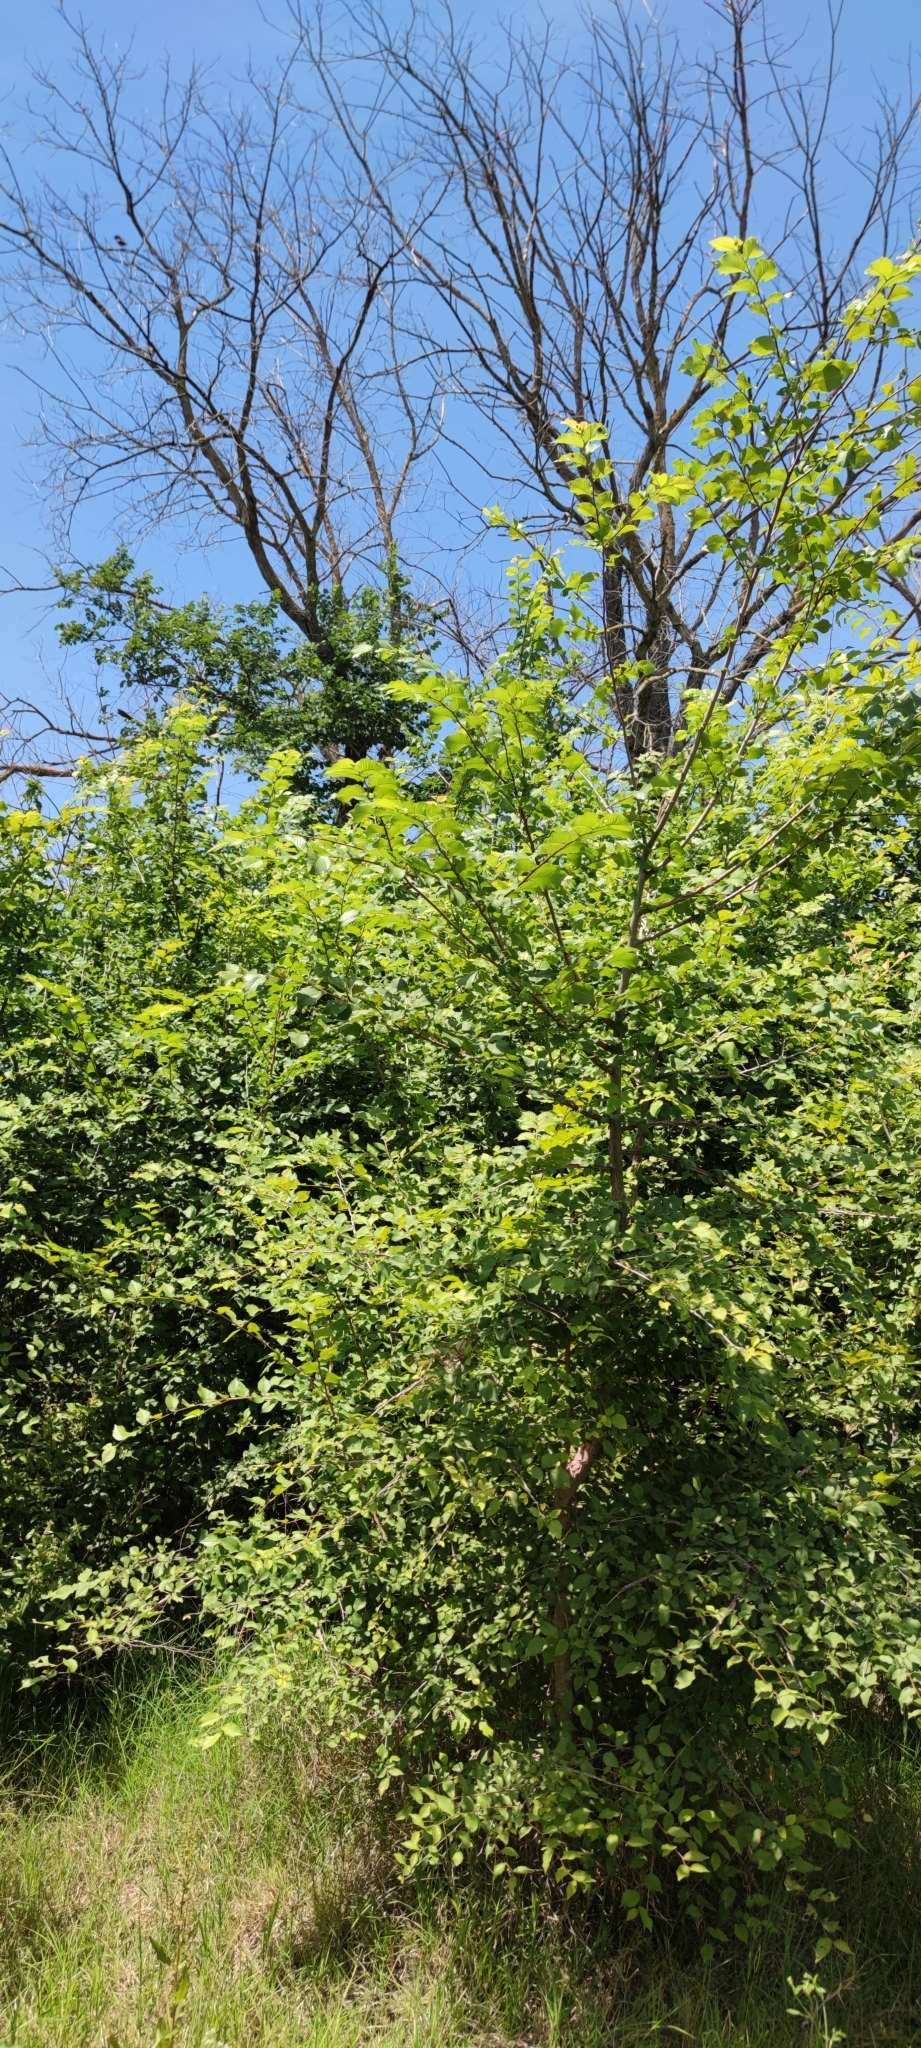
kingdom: Plantae
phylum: Tracheophyta
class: Magnoliopsida
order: Rosales
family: Ulmaceae
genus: Ulmus
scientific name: Ulmus minor
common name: Small-leaved elm
